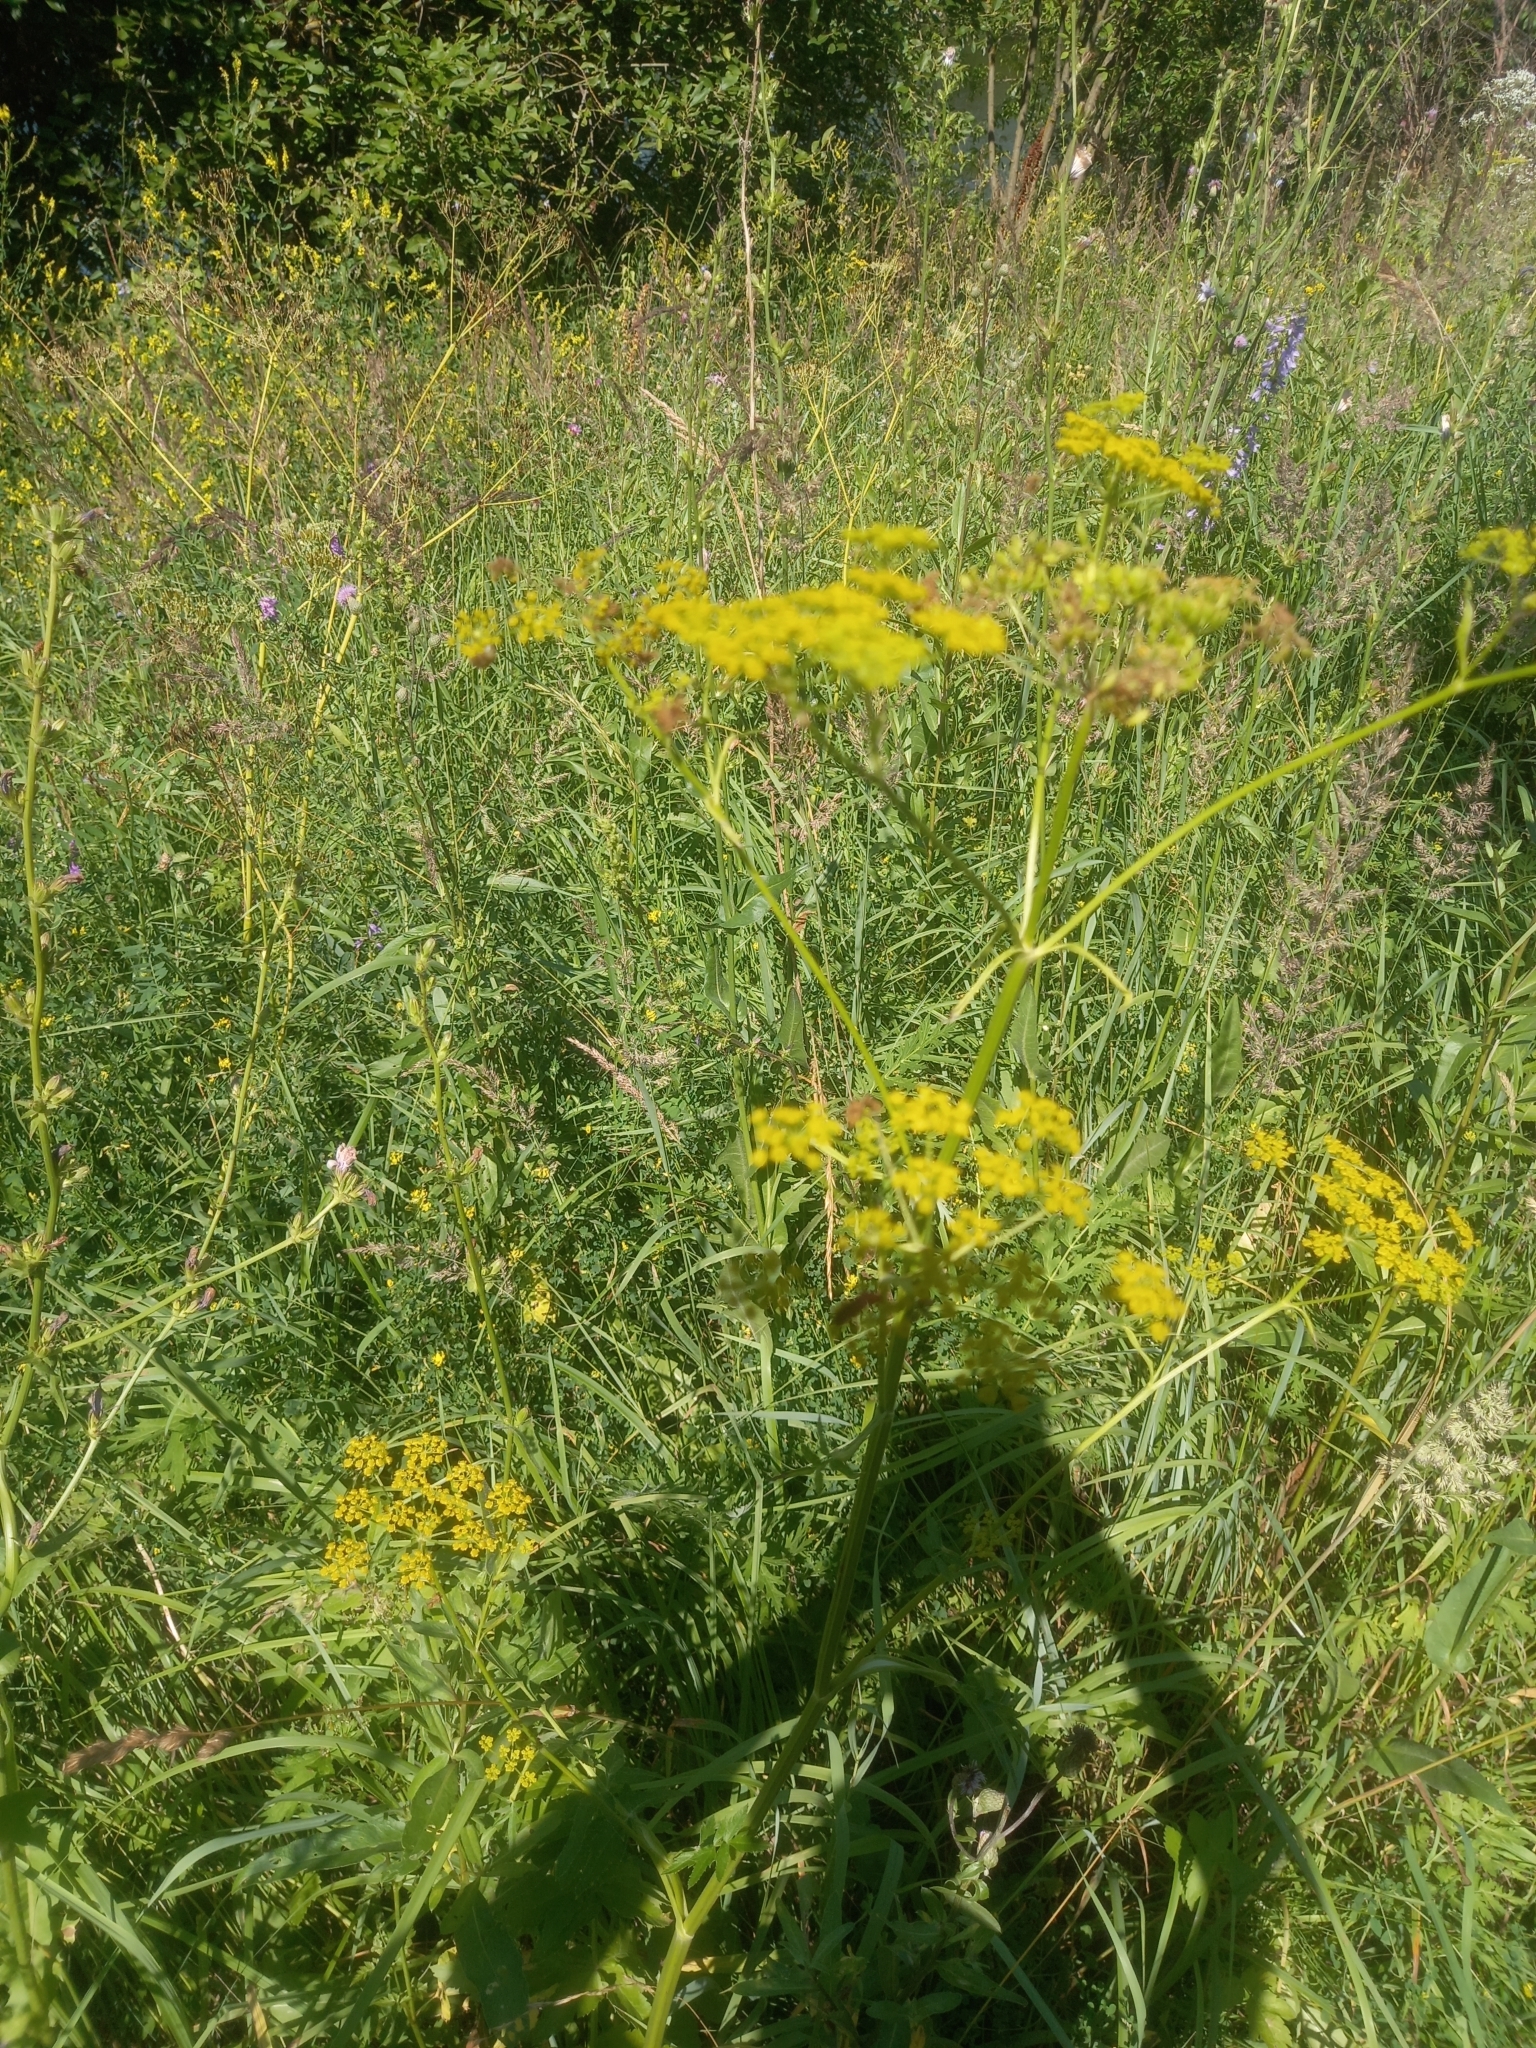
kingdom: Plantae
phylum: Tracheophyta
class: Magnoliopsida
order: Apiales
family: Apiaceae
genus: Pastinaca
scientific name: Pastinaca sativa
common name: Wild parsnip
